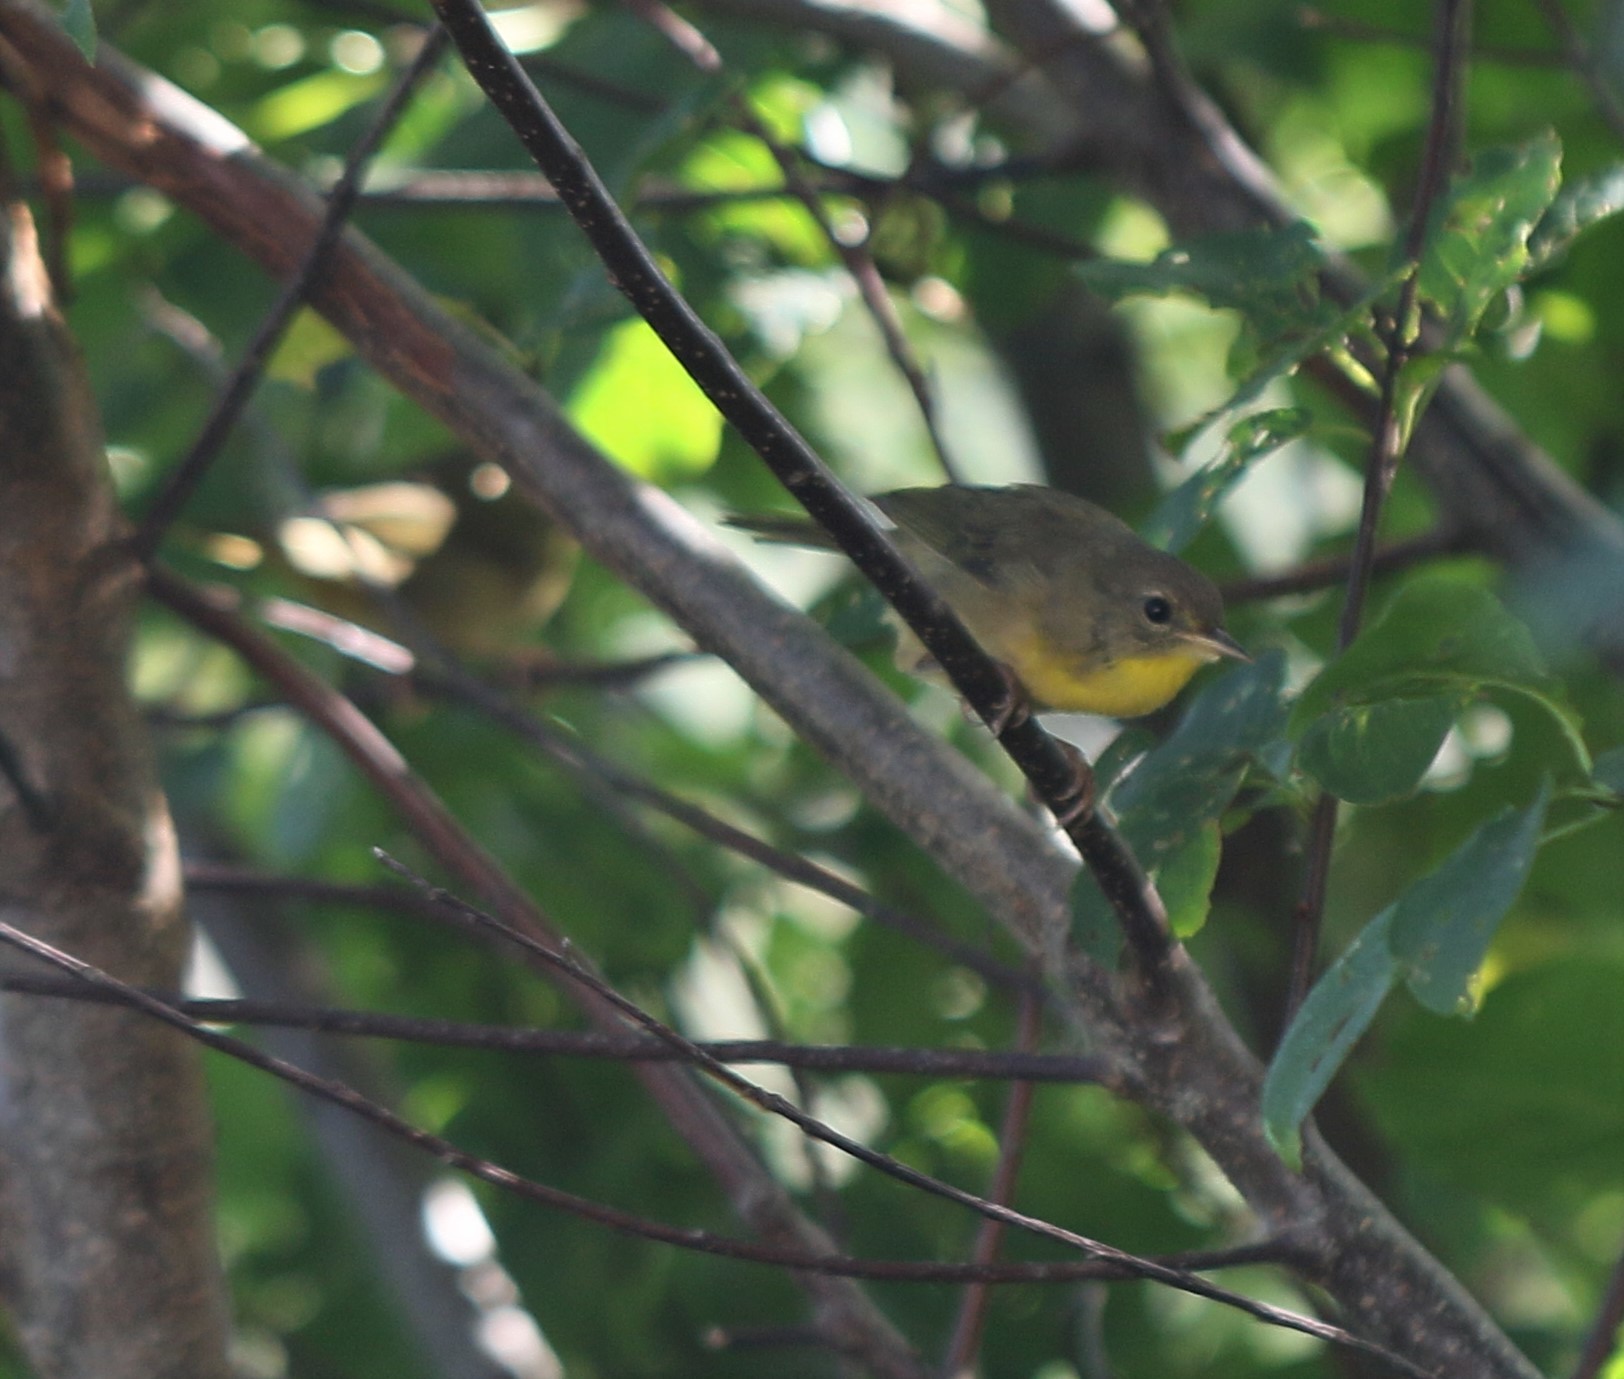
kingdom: Animalia
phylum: Chordata
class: Aves
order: Passeriformes
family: Parulidae
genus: Geothlypis
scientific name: Geothlypis trichas
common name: Common yellowthroat
